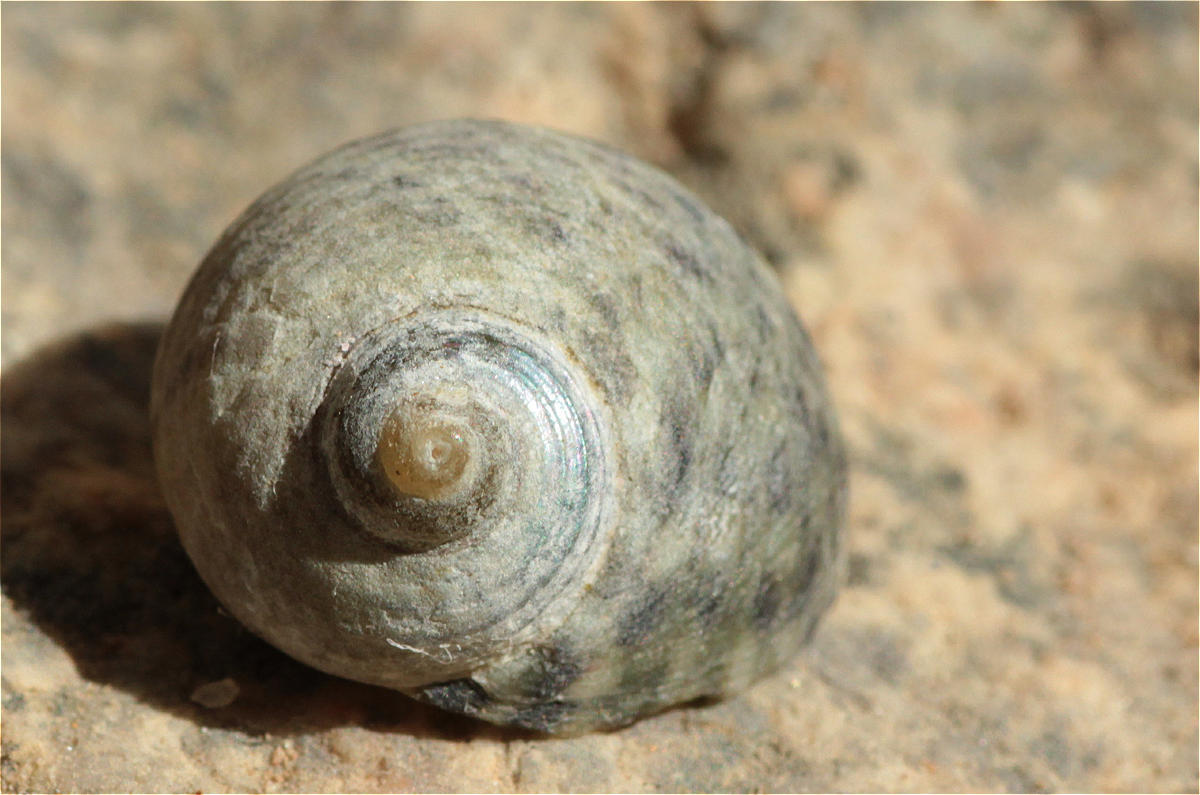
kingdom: Animalia
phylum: Mollusca
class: Gastropoda
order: Trochida
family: Trochidae
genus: Monodonta
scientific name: Monodonta nebulosa
